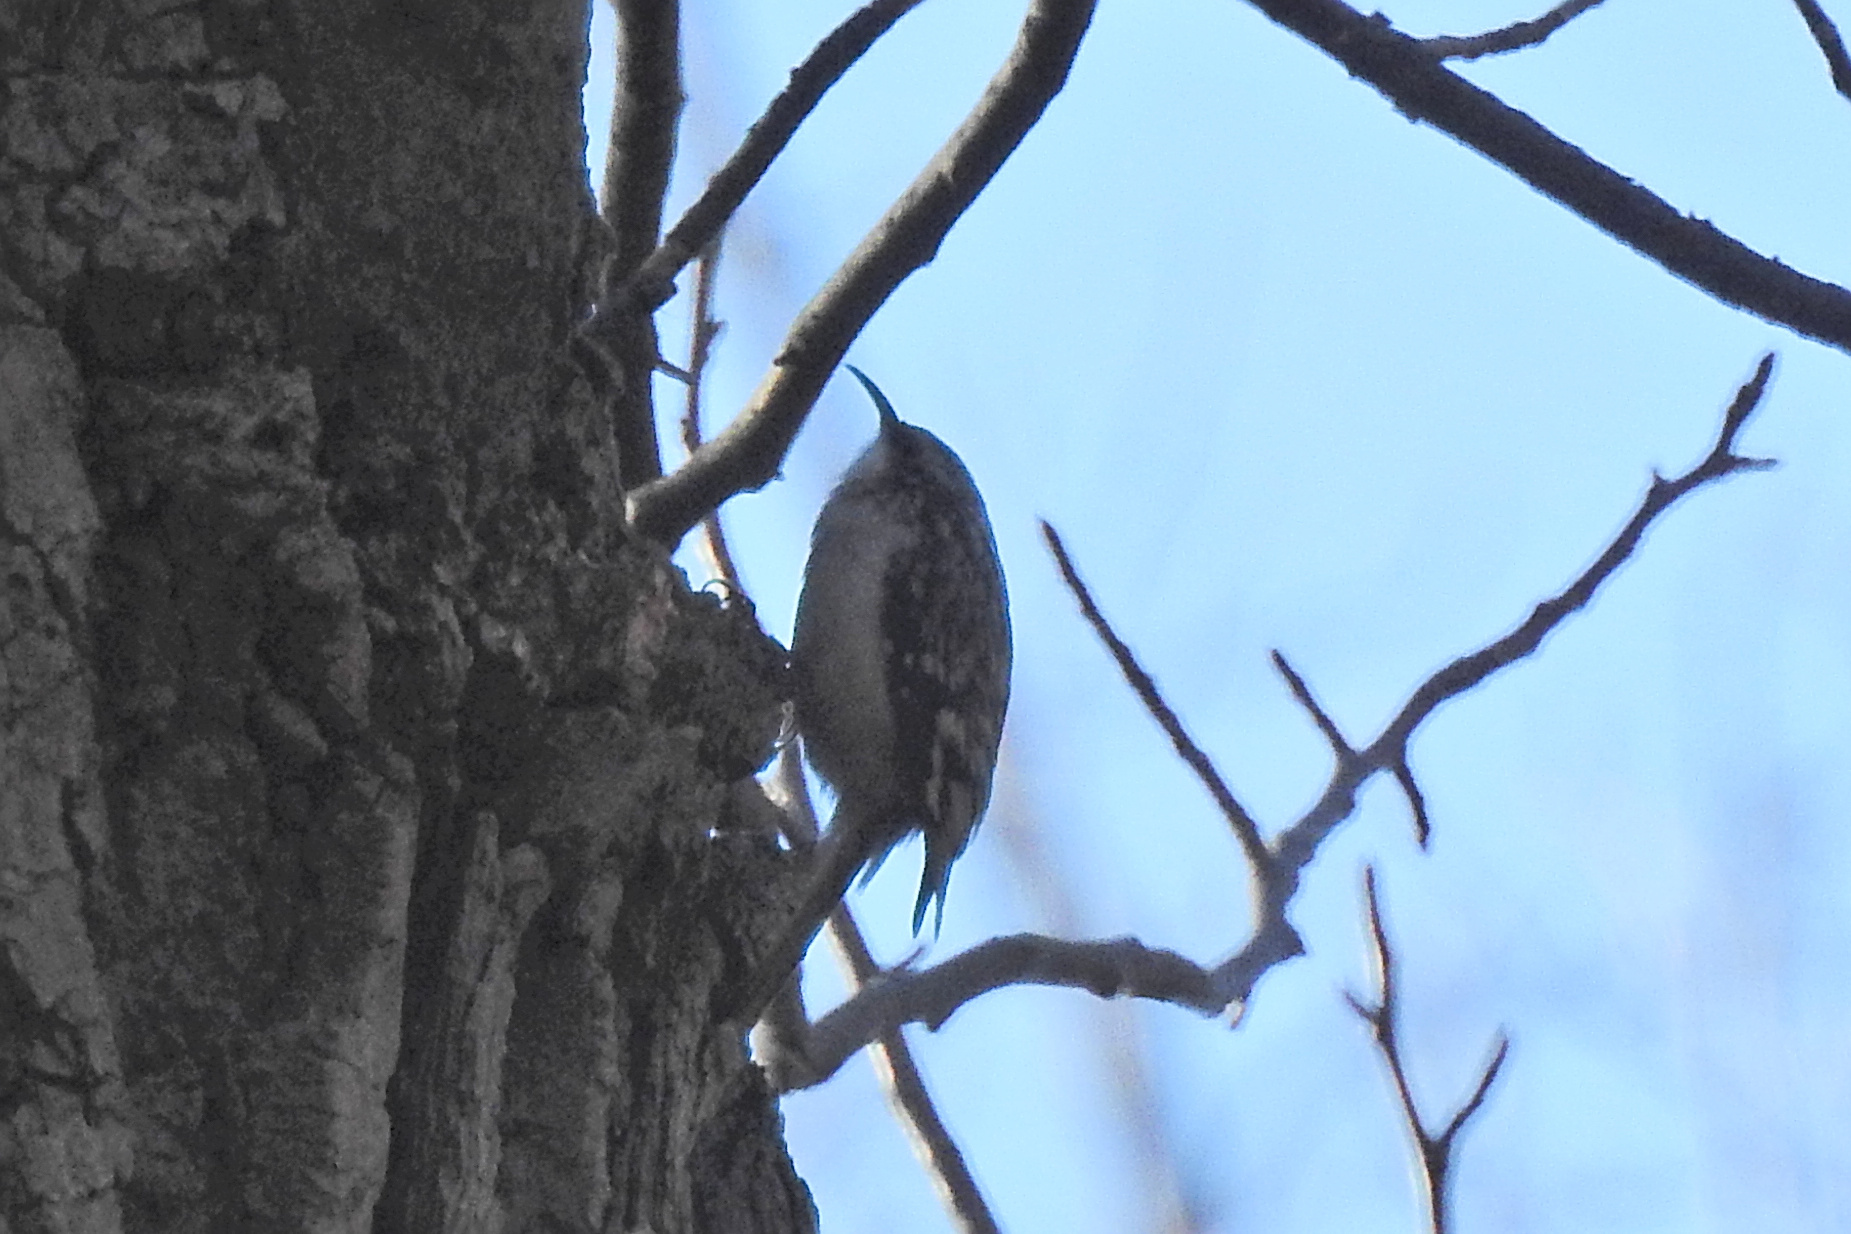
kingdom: Animalia
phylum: Chordata
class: Aves
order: Passeriformes
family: Certhiidae
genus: Certhia
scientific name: Certhia americana
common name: Brown creeper
